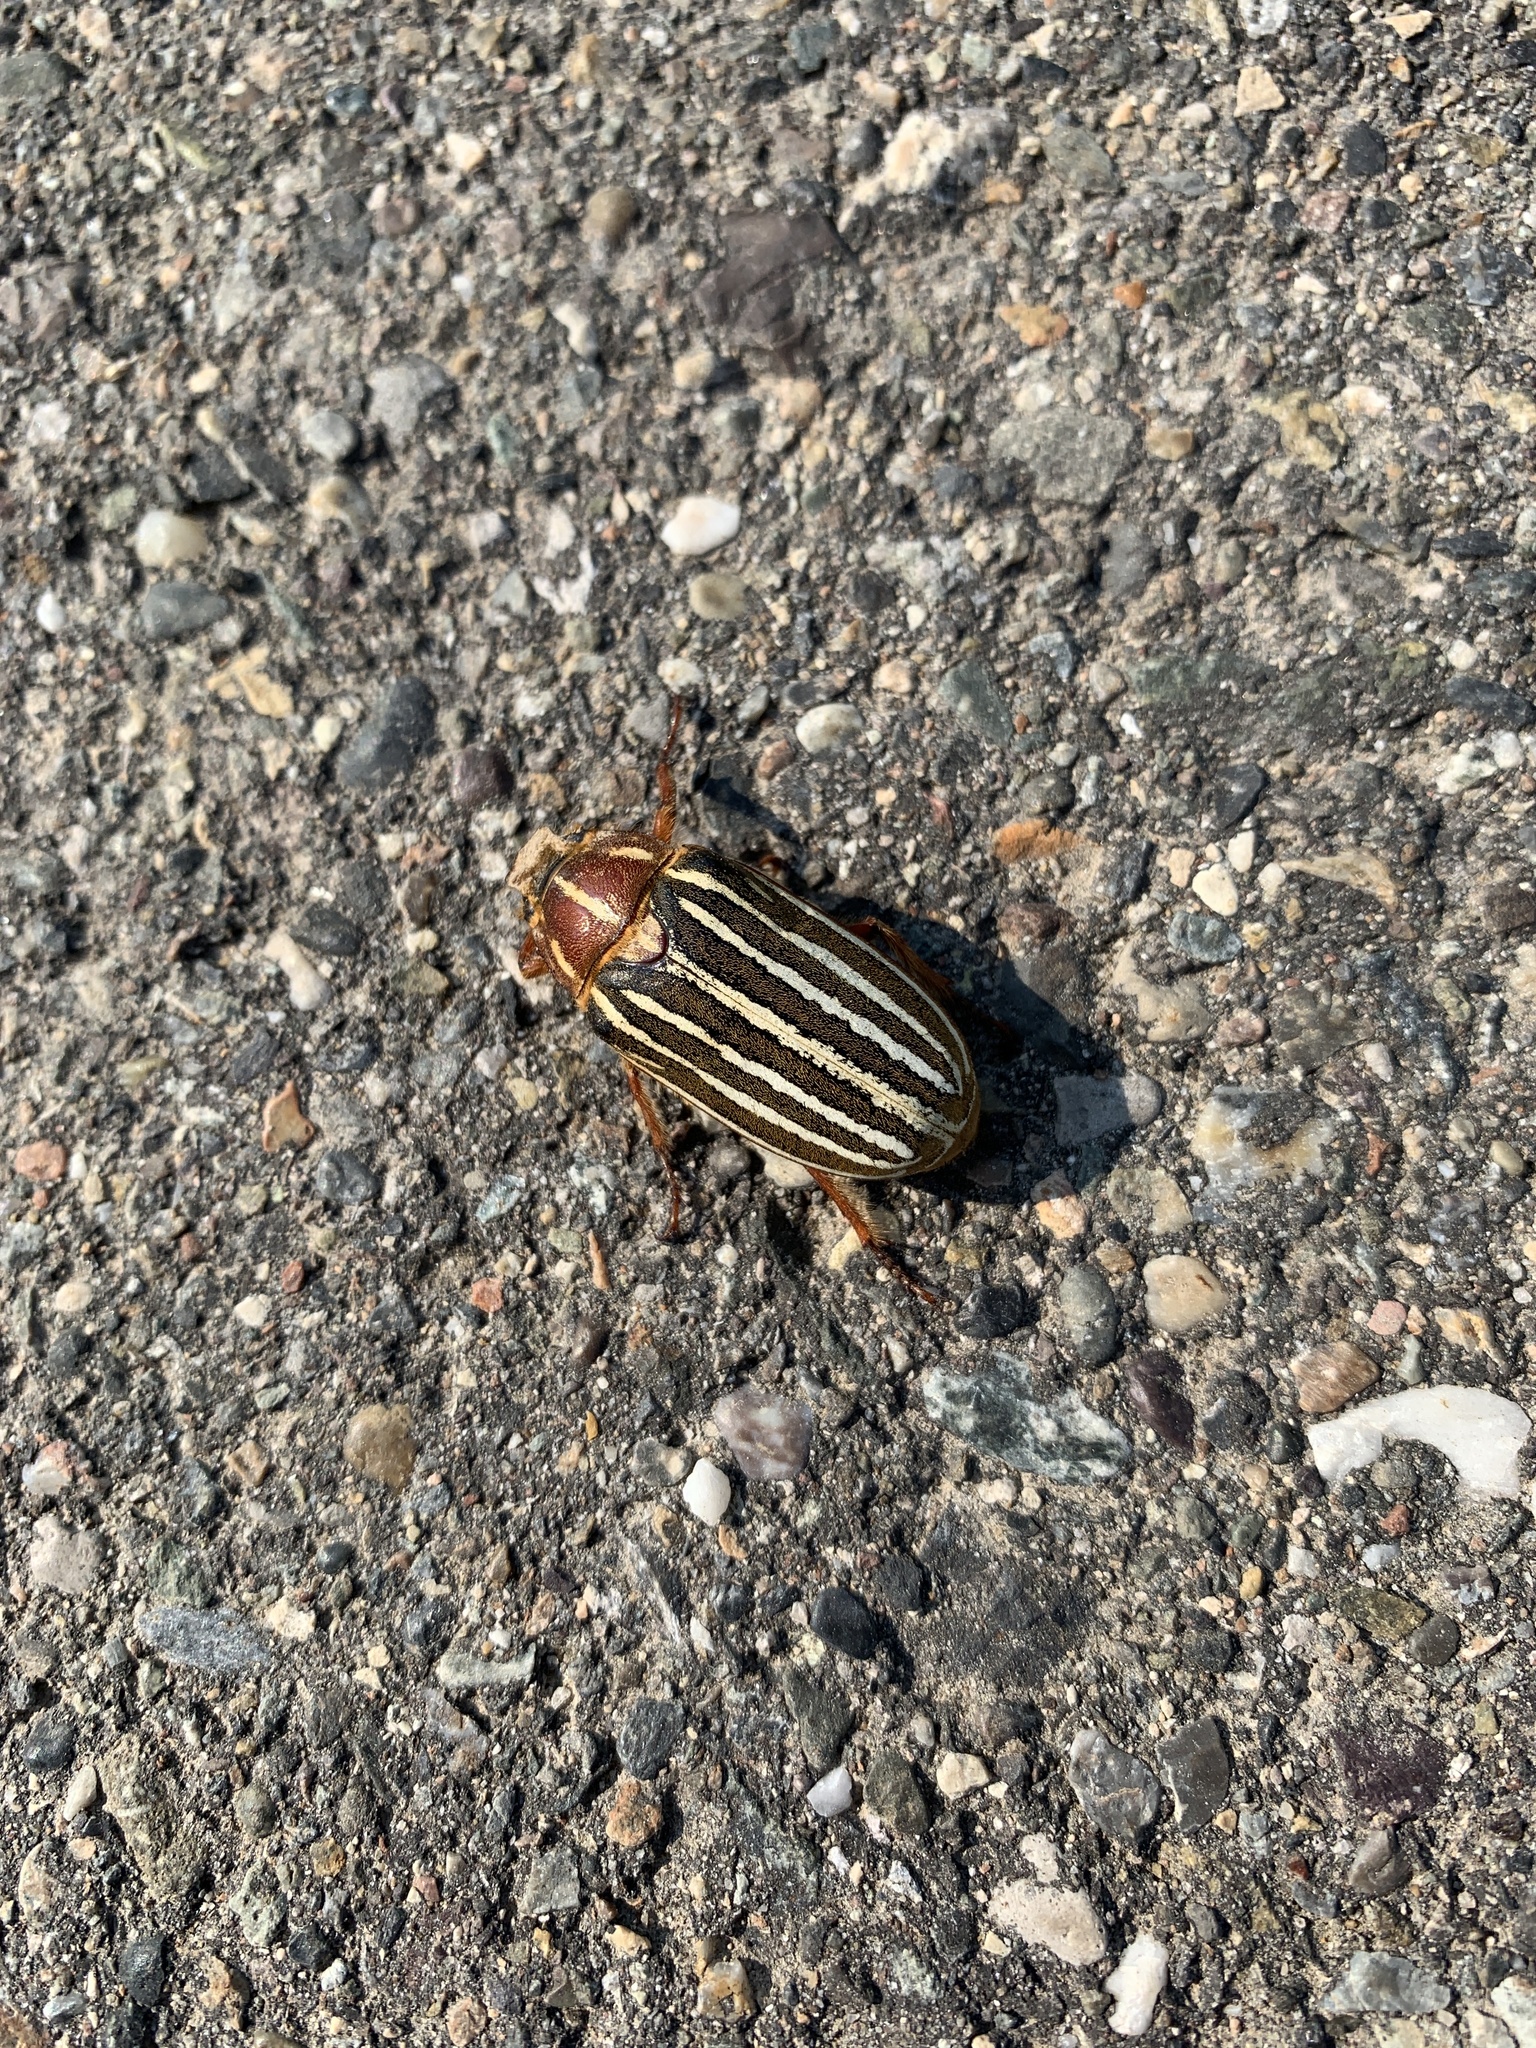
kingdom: Animalia
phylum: Arthropoda
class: Insecta
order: Coleoptera
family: Scarabaeidae
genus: Polyphylla
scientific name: Polyphylla crinita
